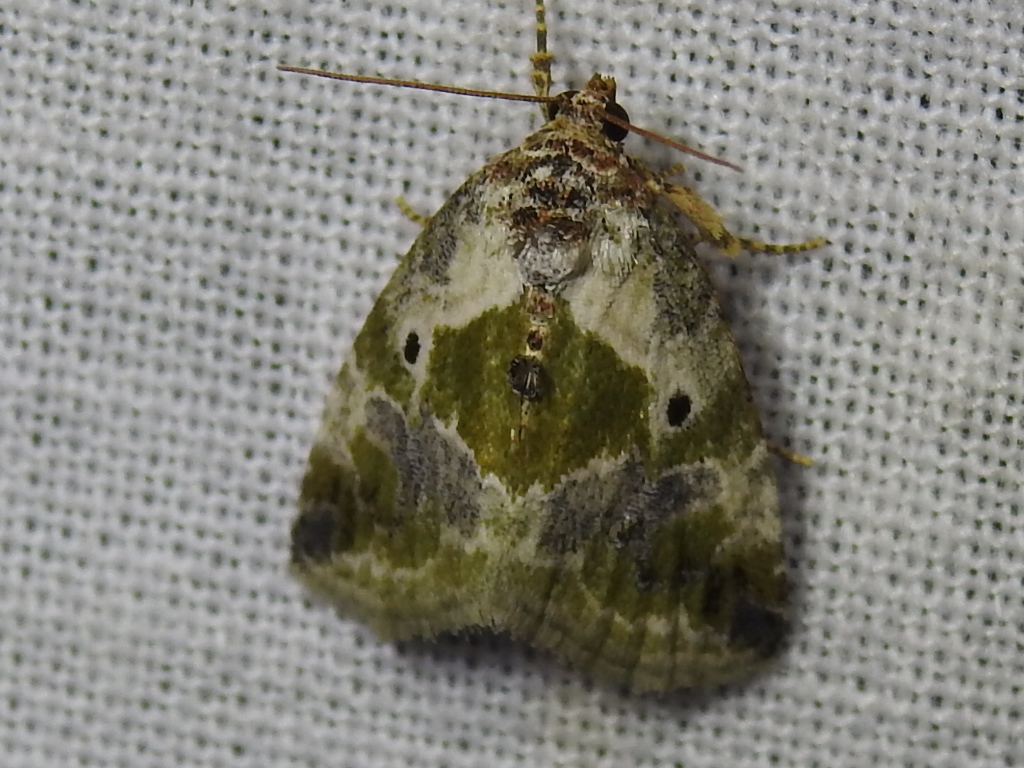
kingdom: Animalia
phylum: Arthropoda
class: Insecta
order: Lepidoptera
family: Noctuidae
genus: Maliattha
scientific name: Maliattha synochitis
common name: Black-dotted glyph
